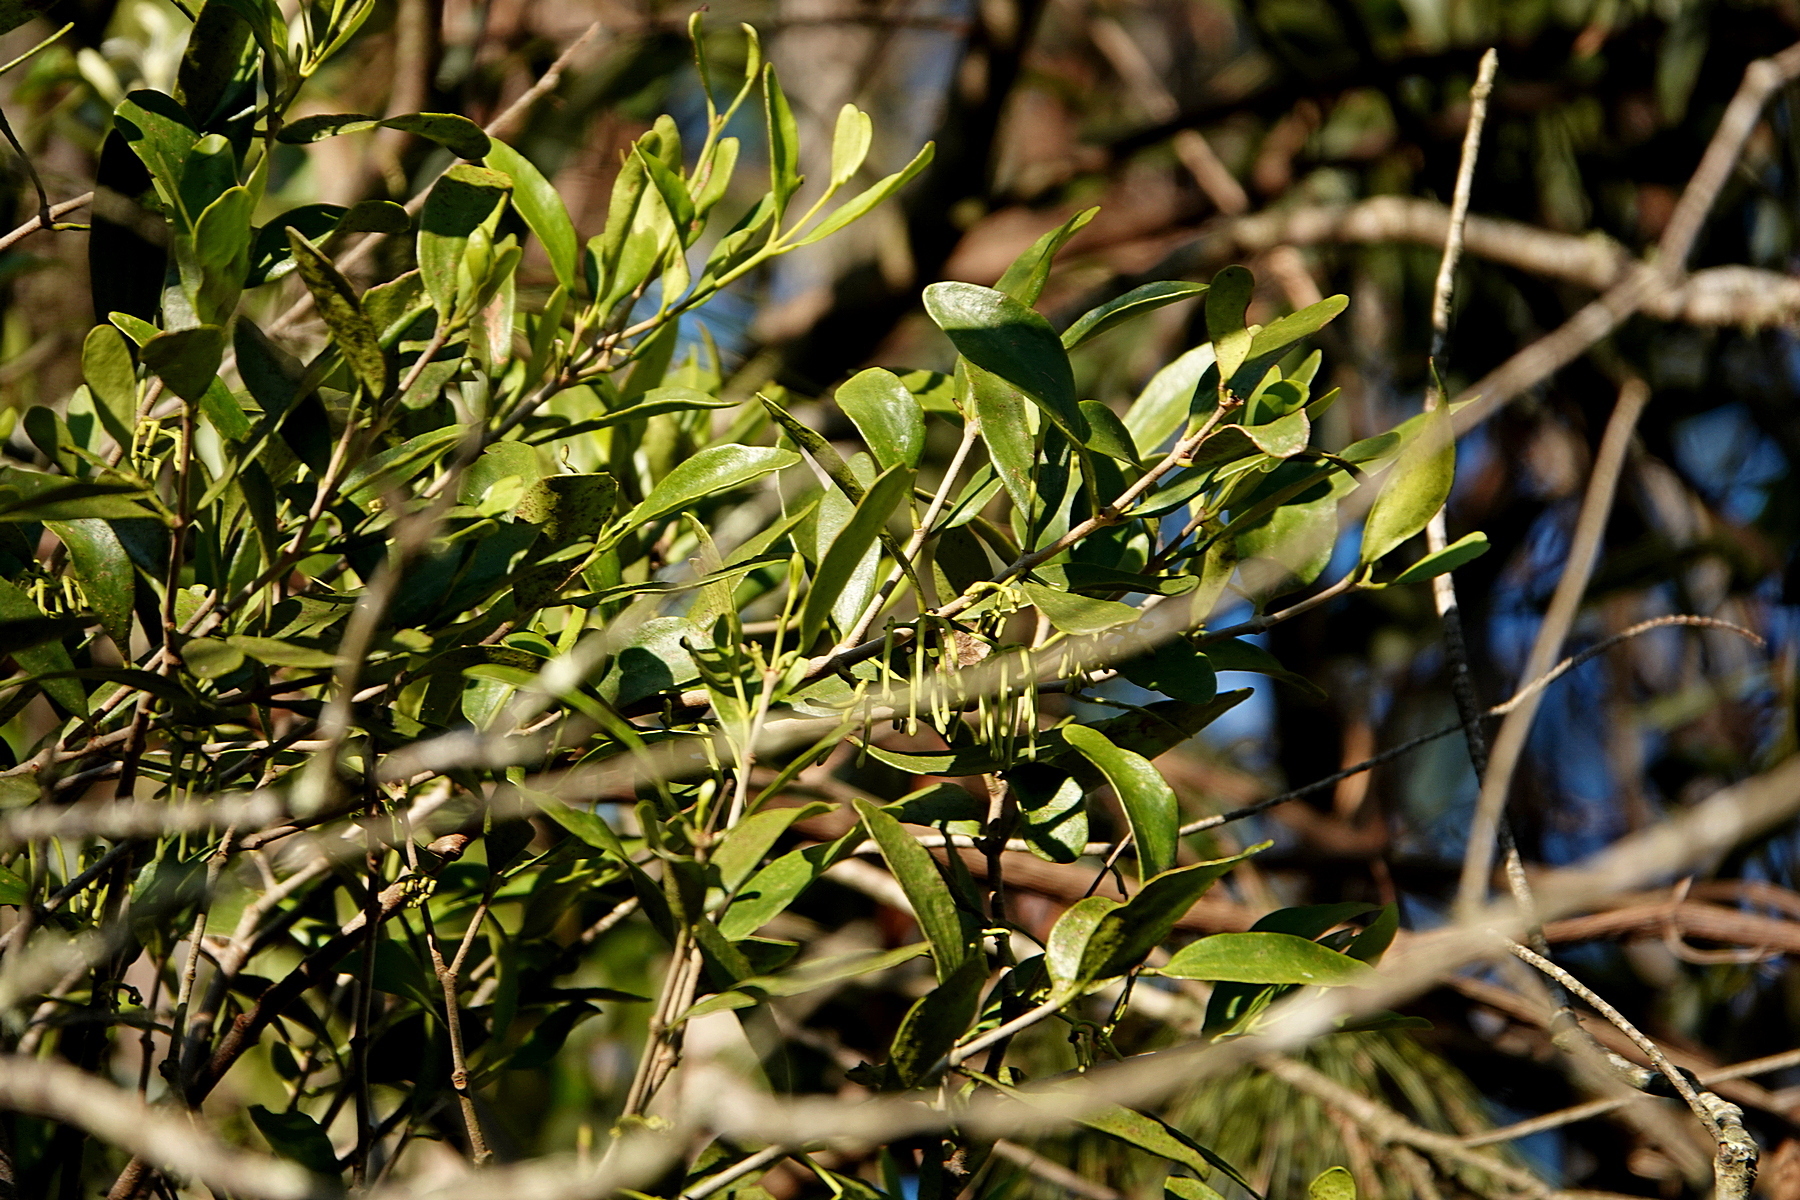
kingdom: Plantae
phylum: Tracheophyta
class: Magnoliopsida
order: Santalales
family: Loranthaceae
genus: Amyema
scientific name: Amyema congener
